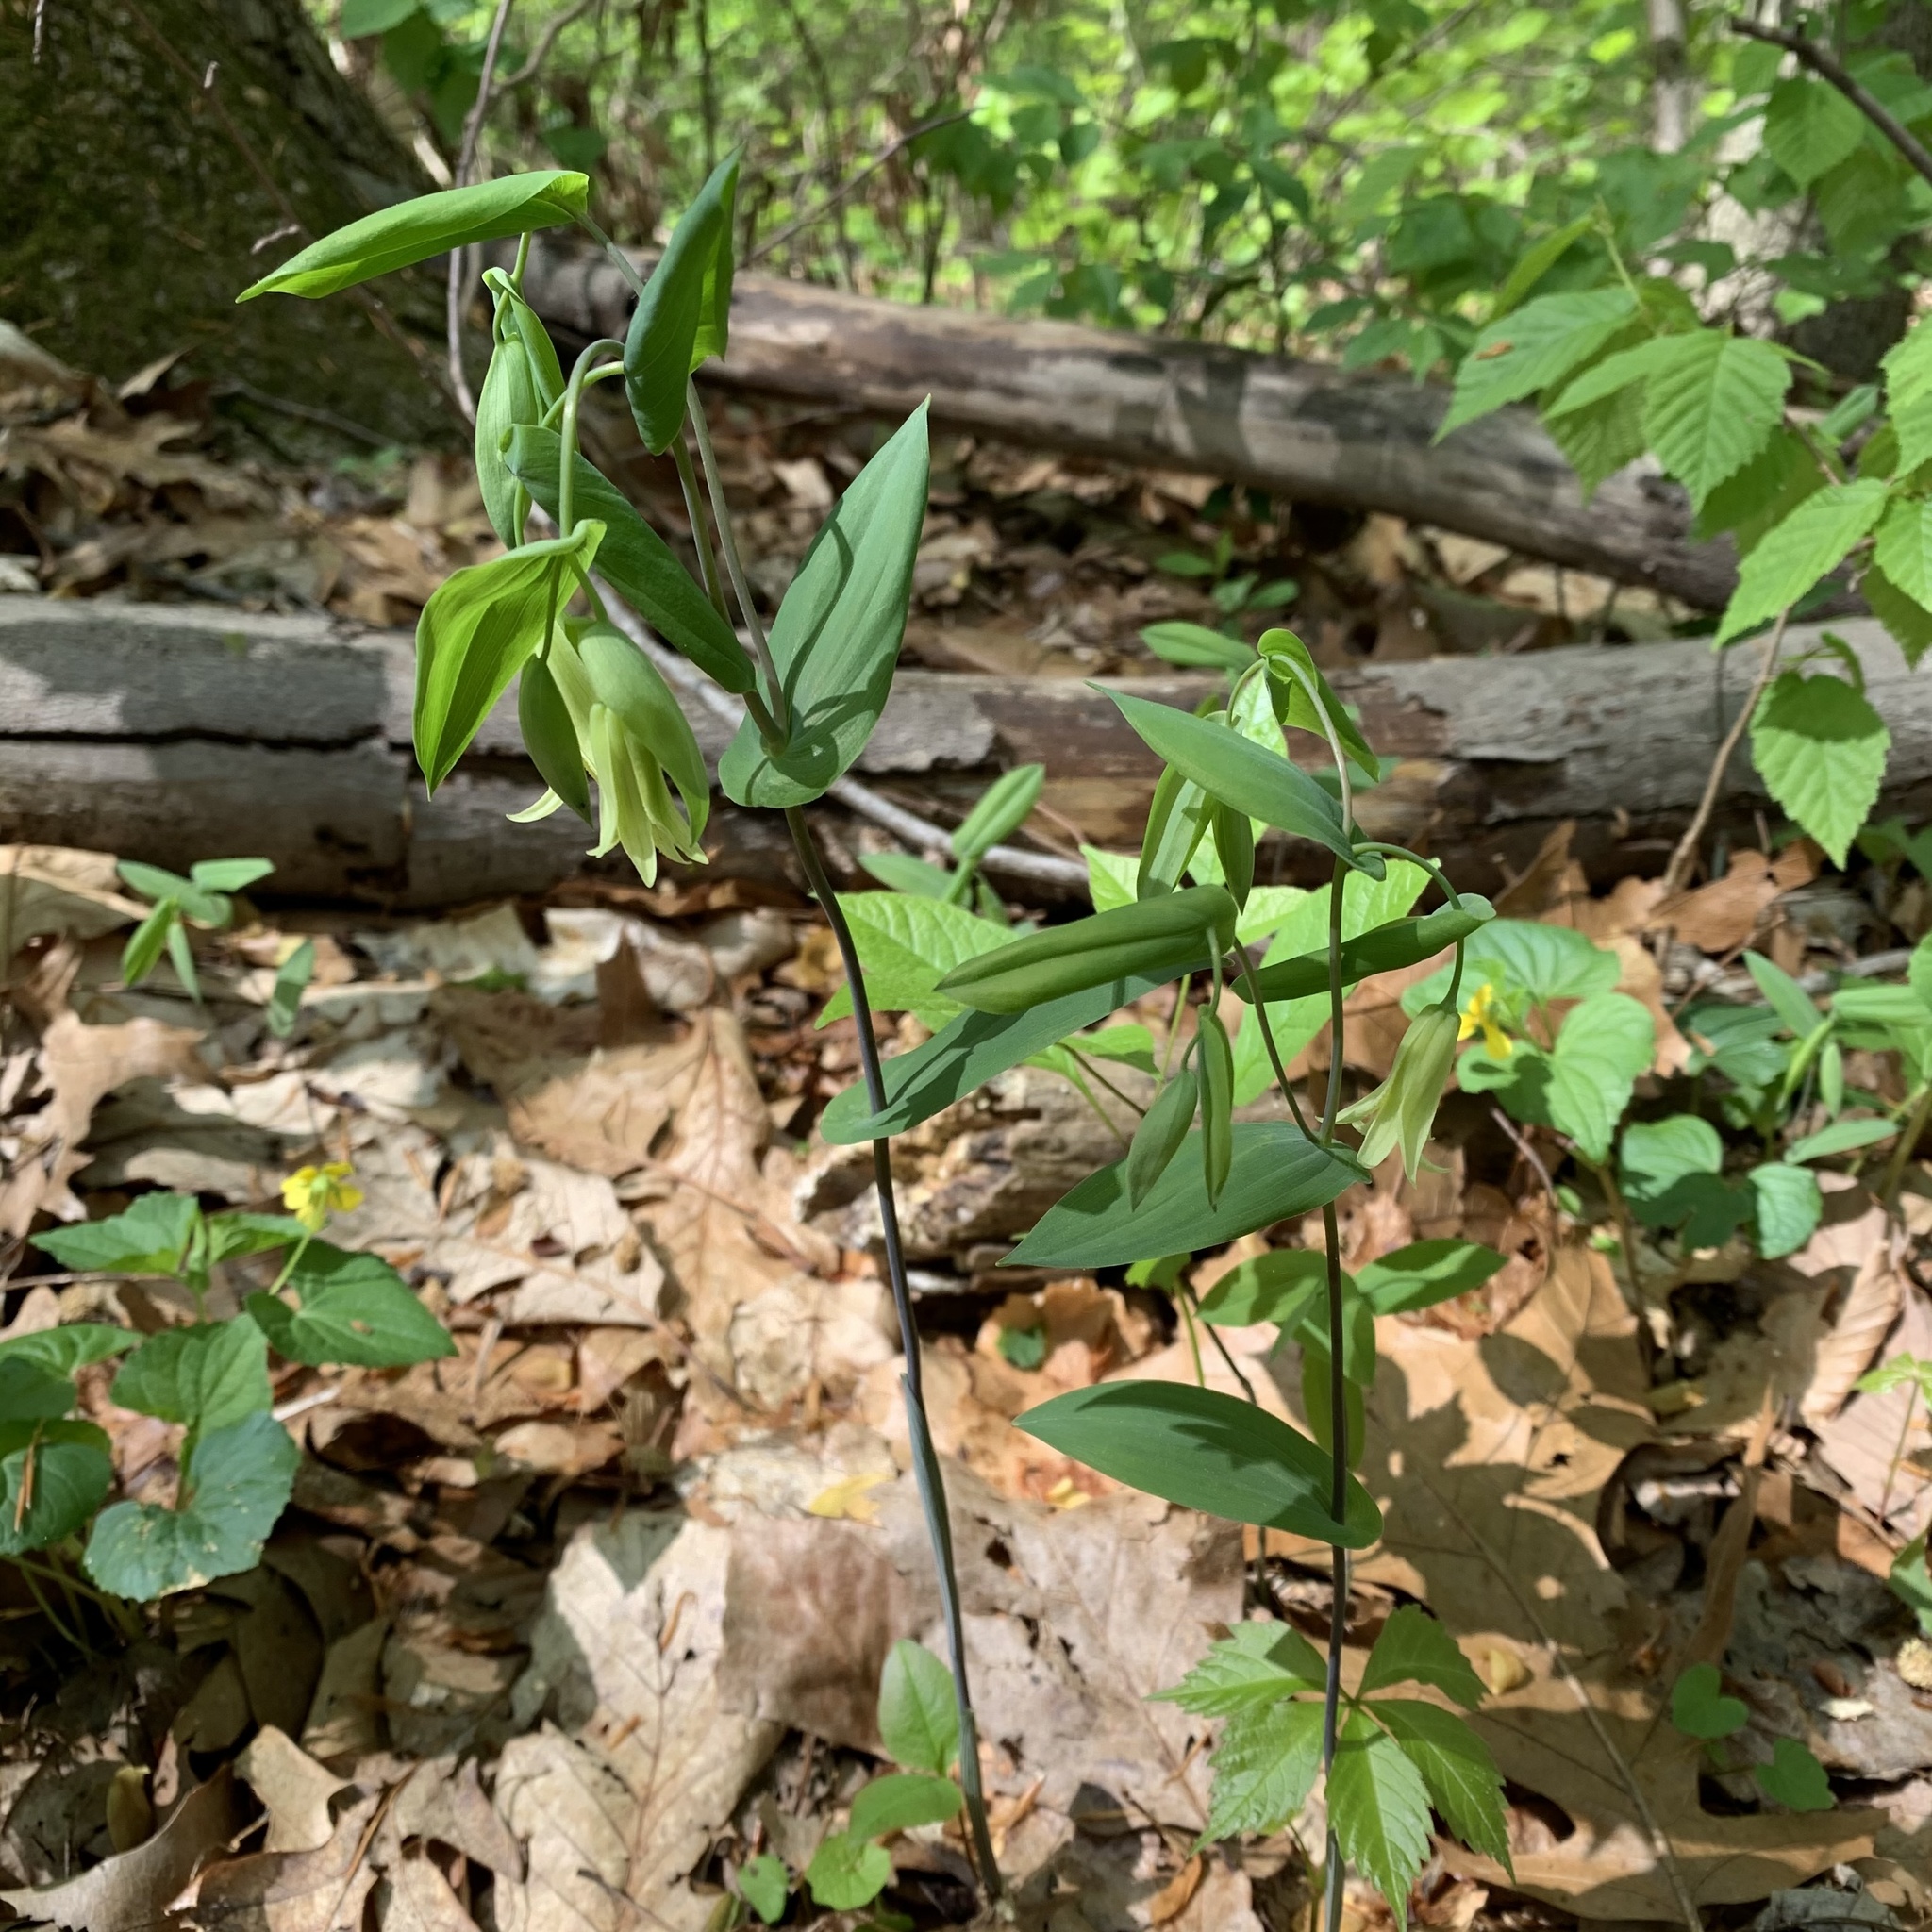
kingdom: Plantae
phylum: Tracheophyta
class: Liliopsida
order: Liliales
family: Colchicaceae
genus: Uvularia
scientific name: Uvularia perfoliata
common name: Perfoliate bellwort
